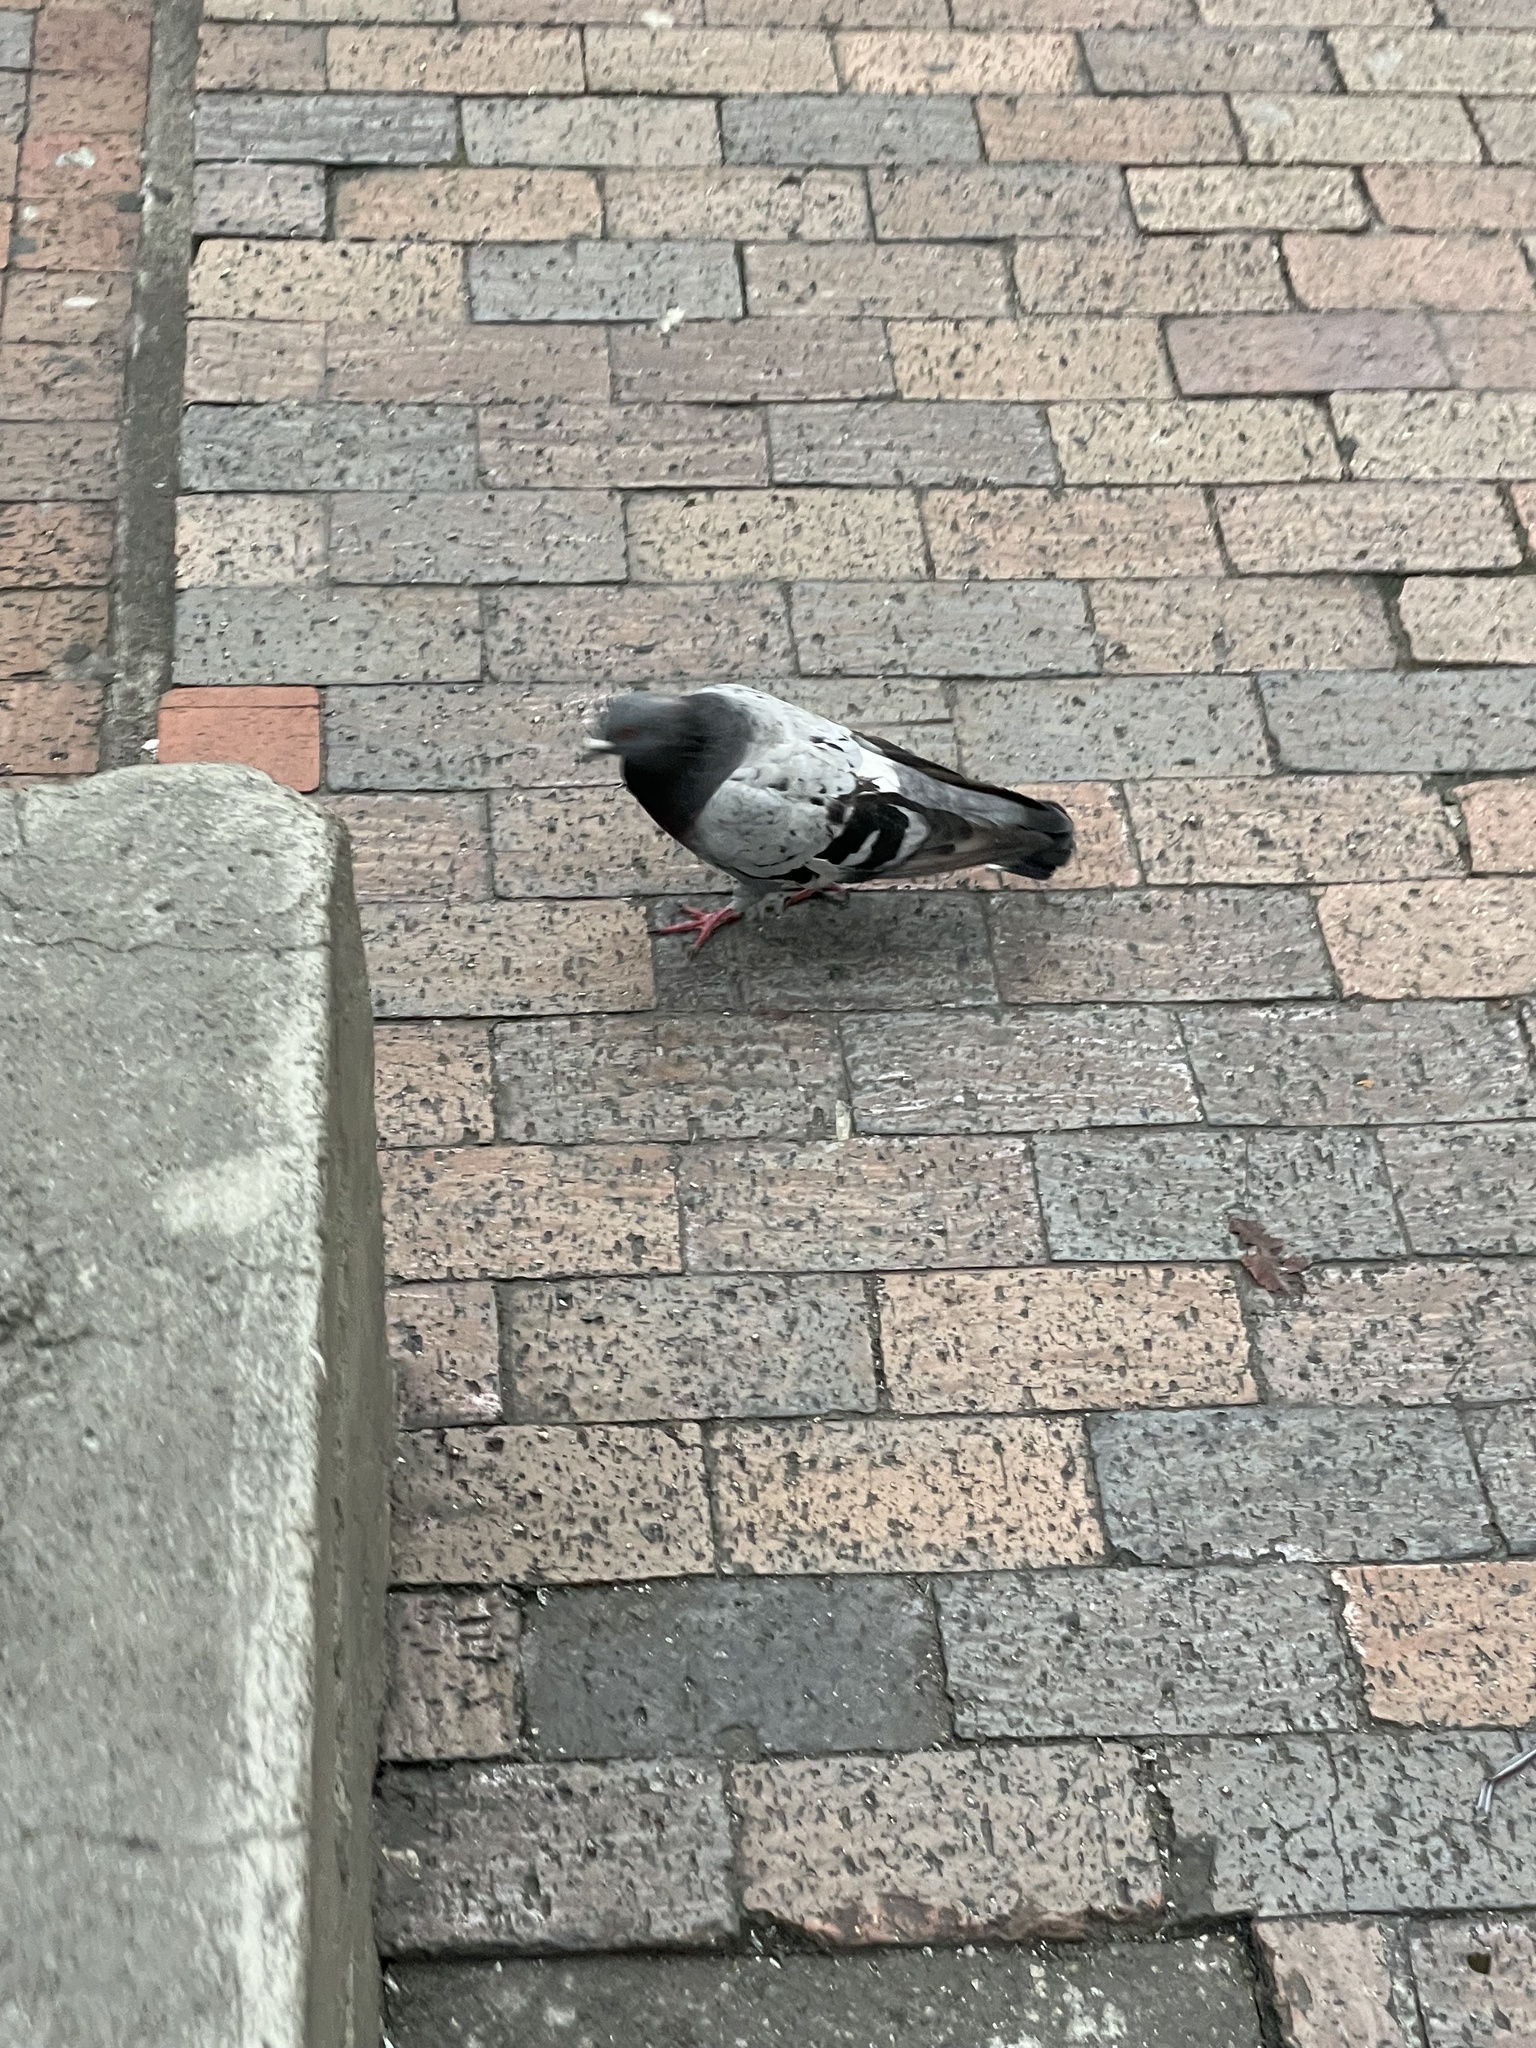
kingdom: Animalia
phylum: Chordata
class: Aves
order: Columbiformes
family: Columbidae
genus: Columba
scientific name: Columba livia
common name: Rock pigeon
